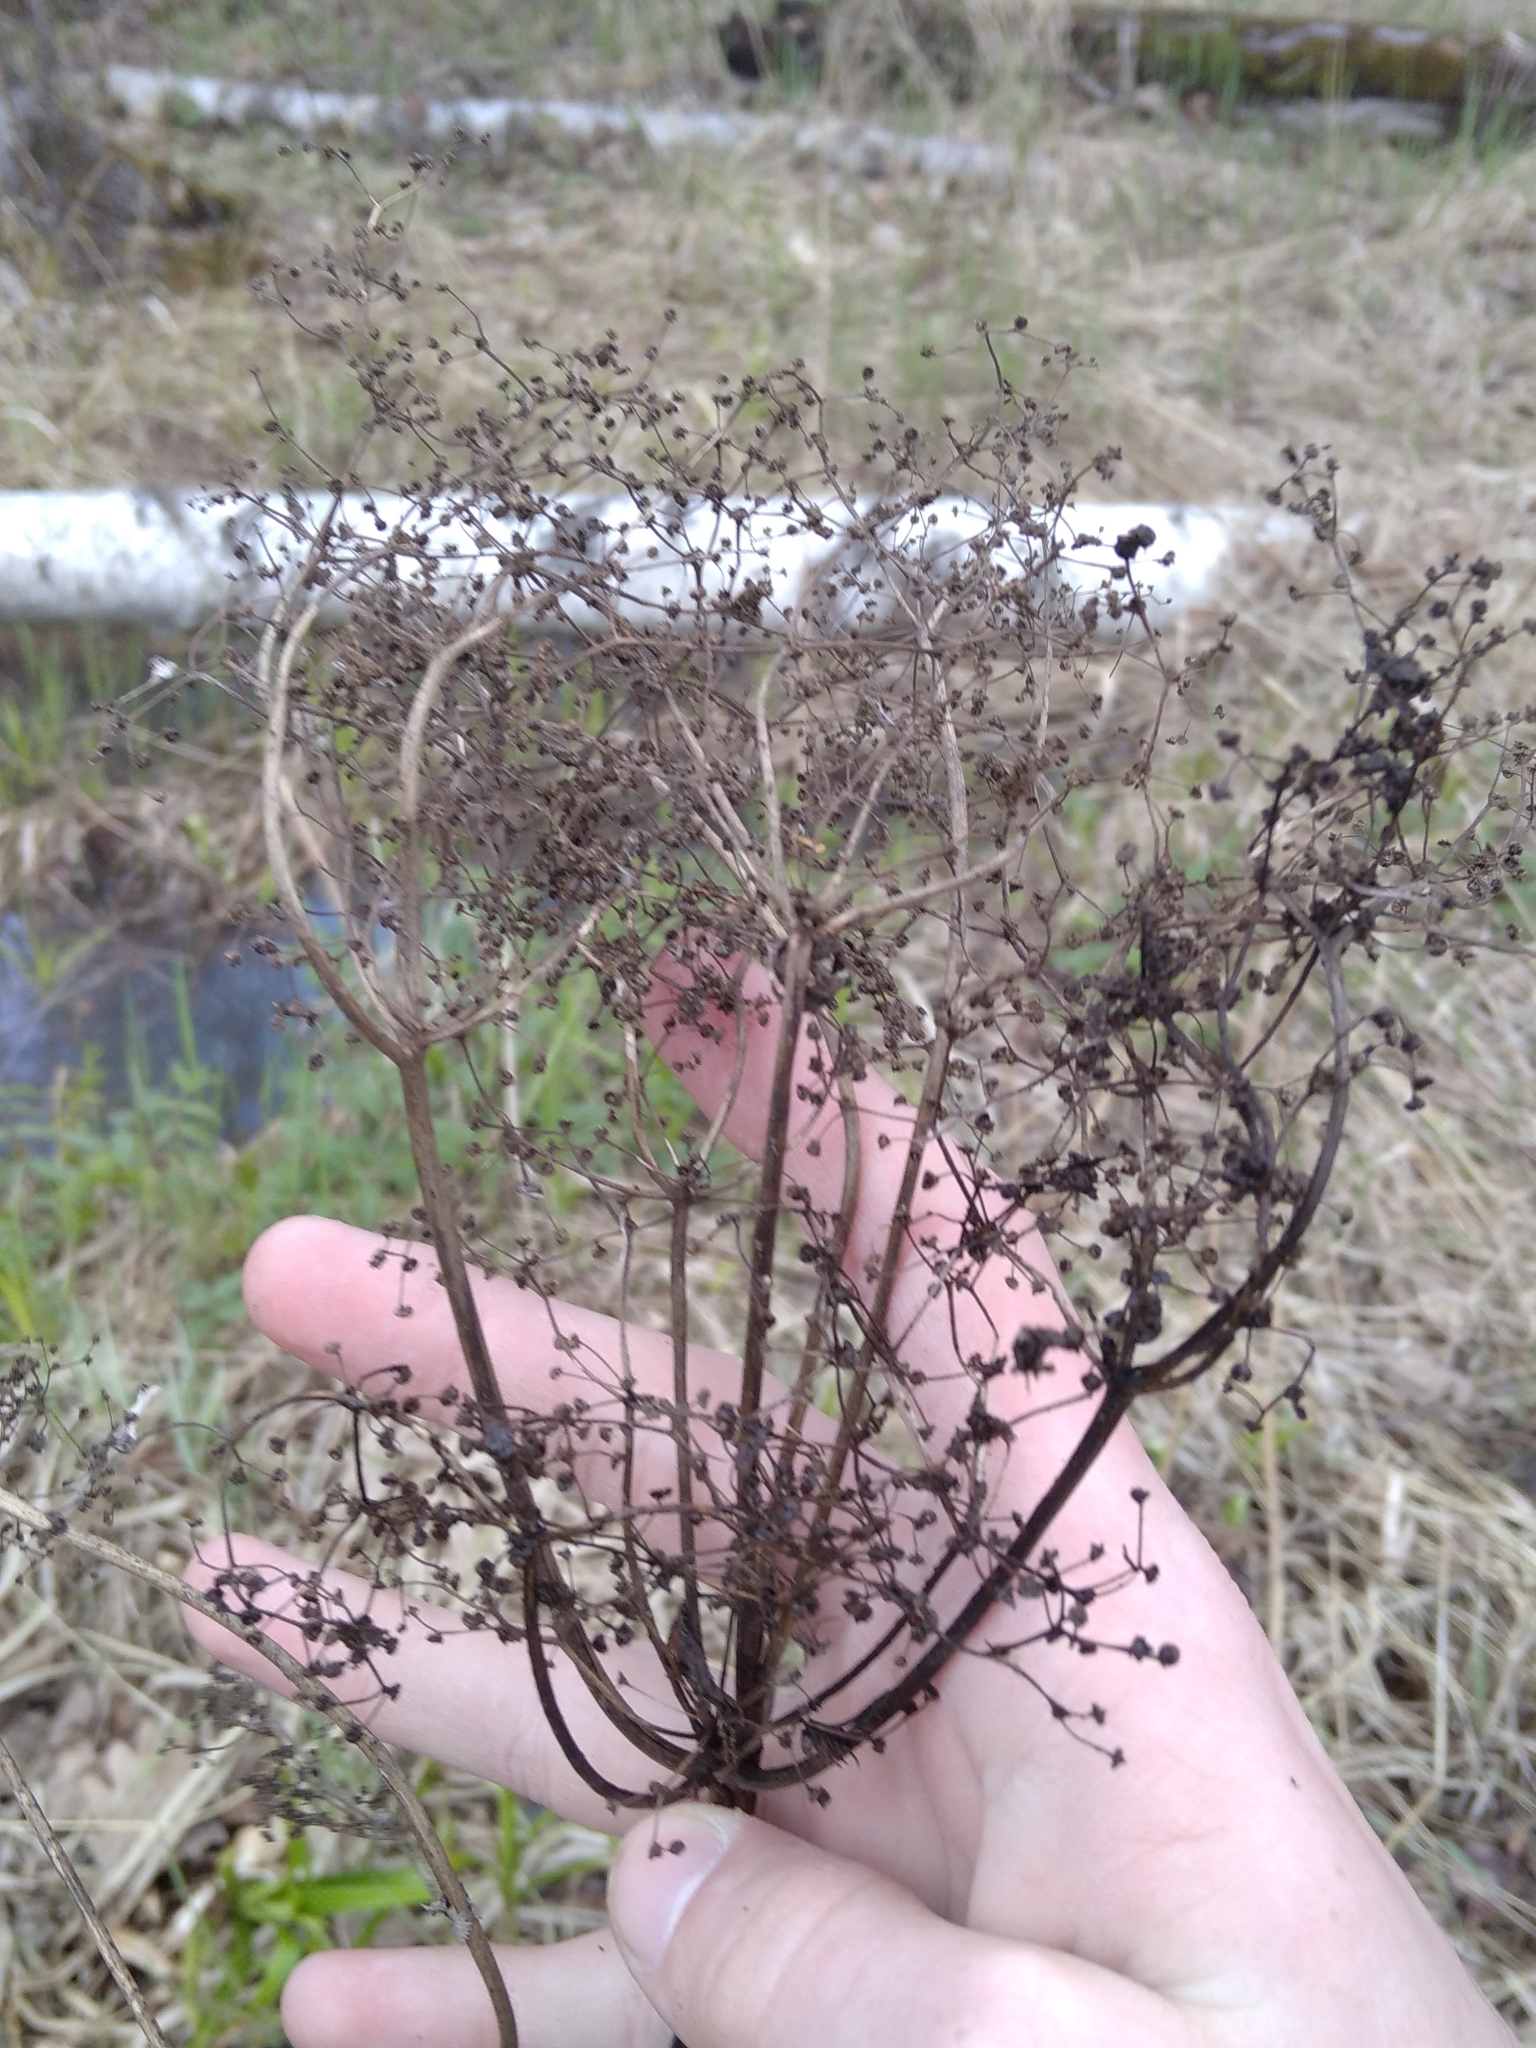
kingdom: Plantae
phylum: Tracheophyta
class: Magnoliopsida
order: Rosales
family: Rosaceae
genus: Filipendula
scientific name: Filipendula ulmaria
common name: Meadowsweet
